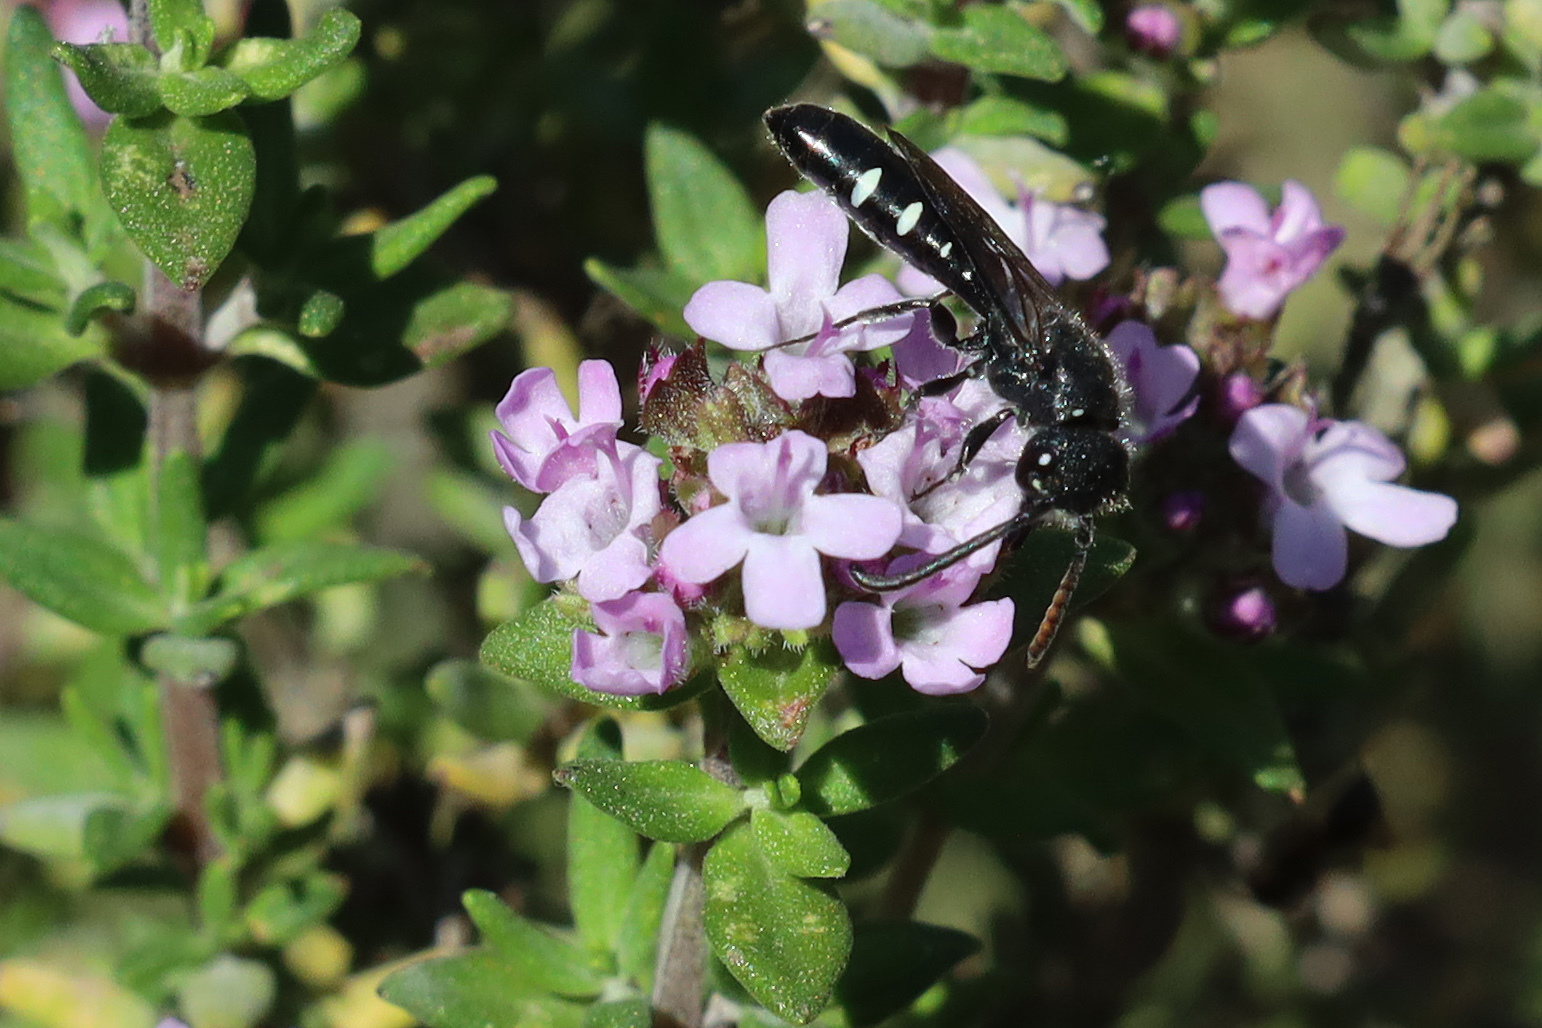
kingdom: Animalia
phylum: Arthropoda
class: Insecta
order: Hymenoptera
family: Sapygidae
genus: Sapyga
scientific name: Sapyga quinquepunctata
